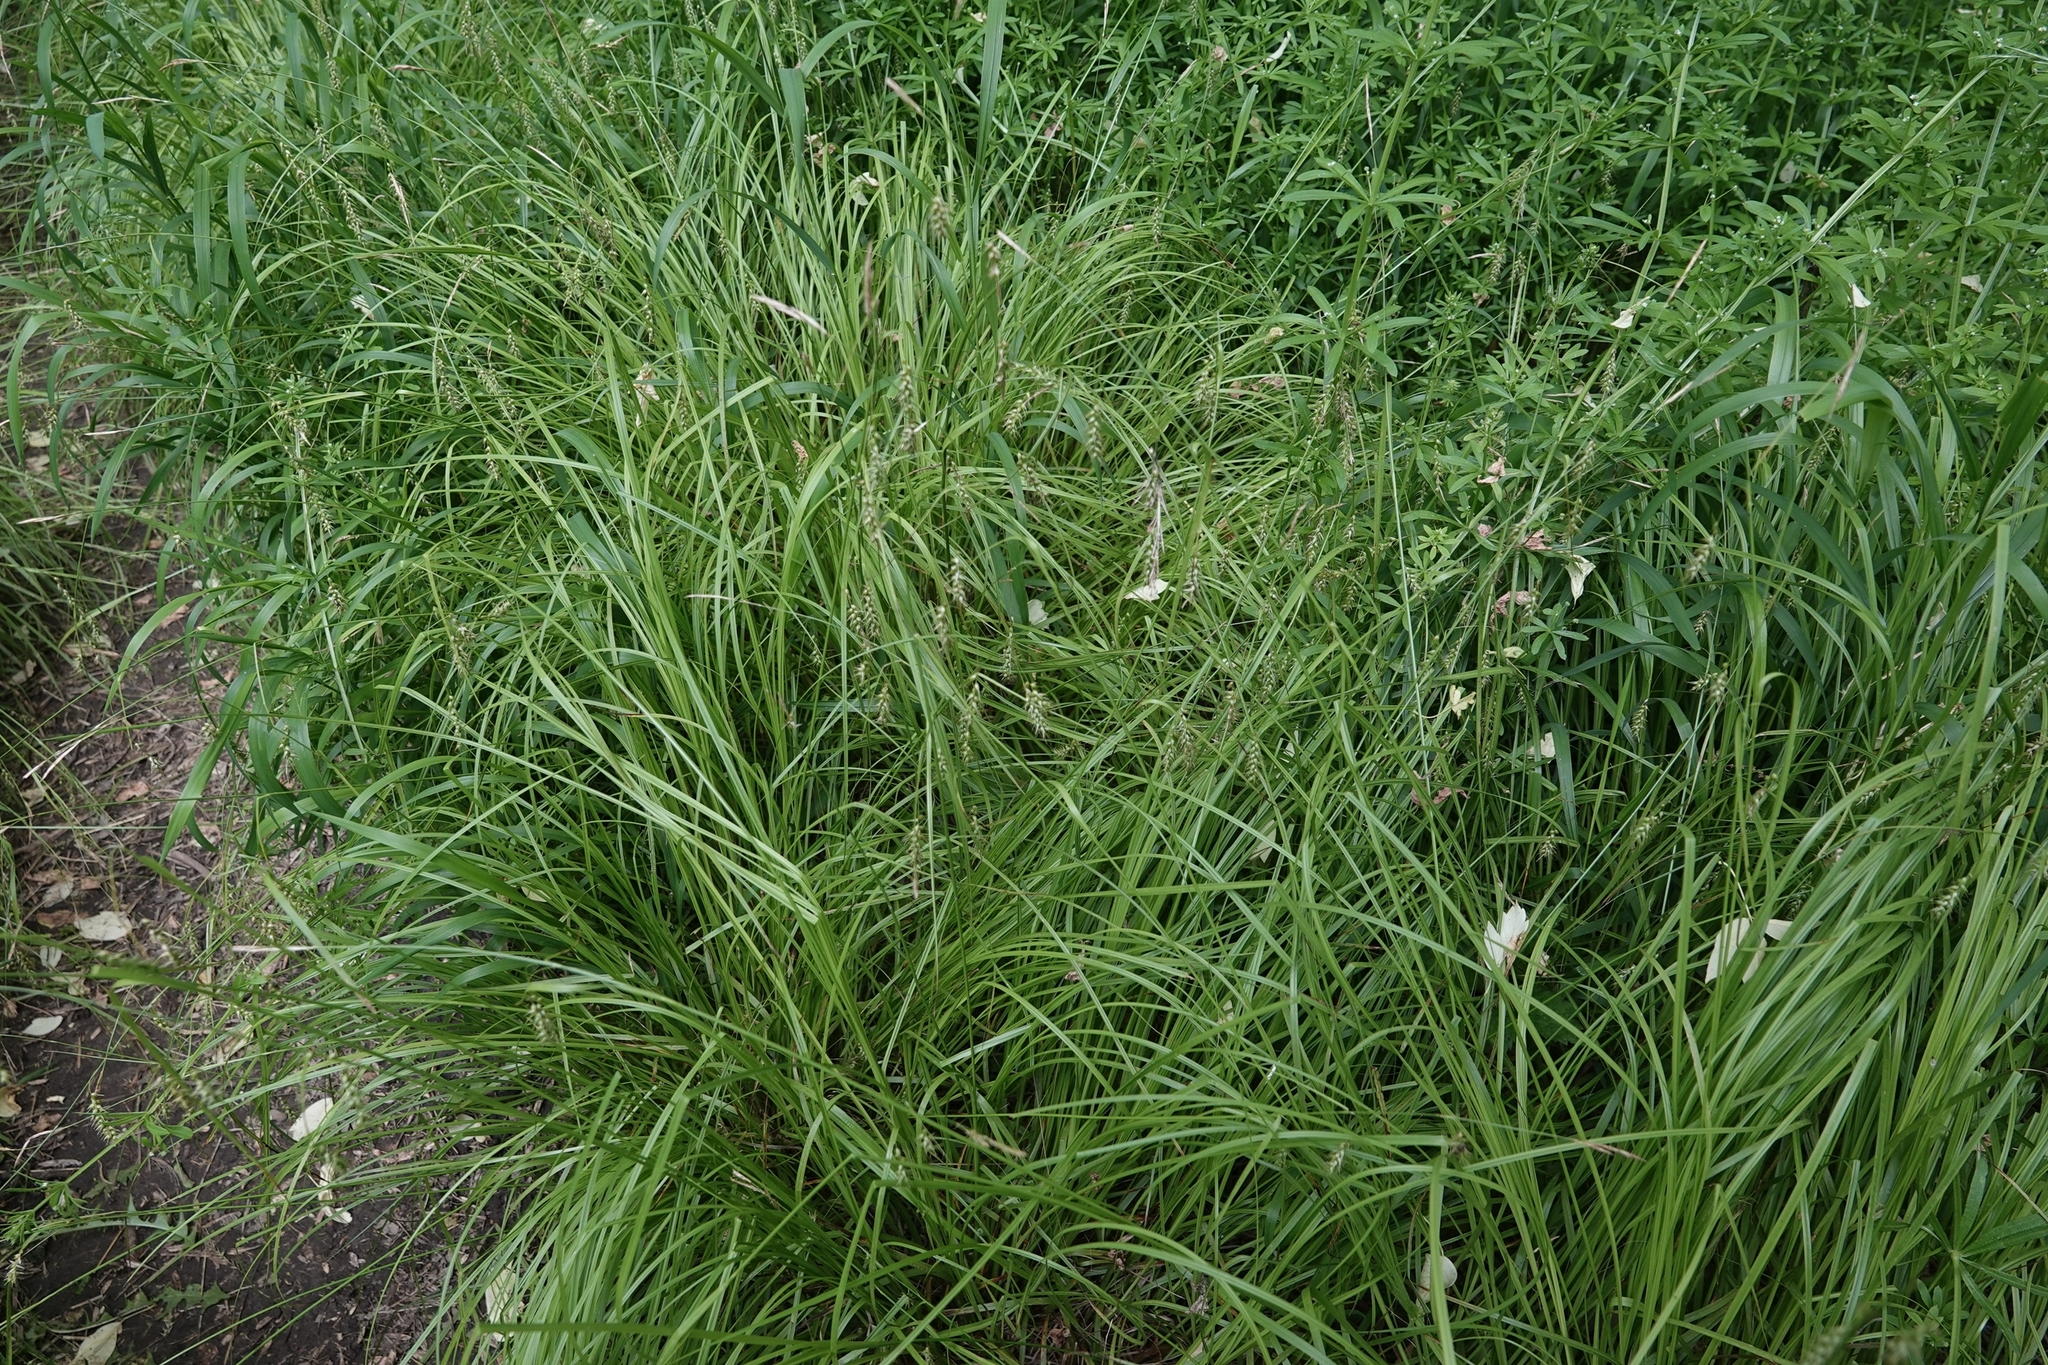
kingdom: Plantae
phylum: Tracheophyta
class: Liliopsida
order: Poales
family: Cyperaceae
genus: Carex
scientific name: Carex sprengelii
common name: Long-beaked sedge
